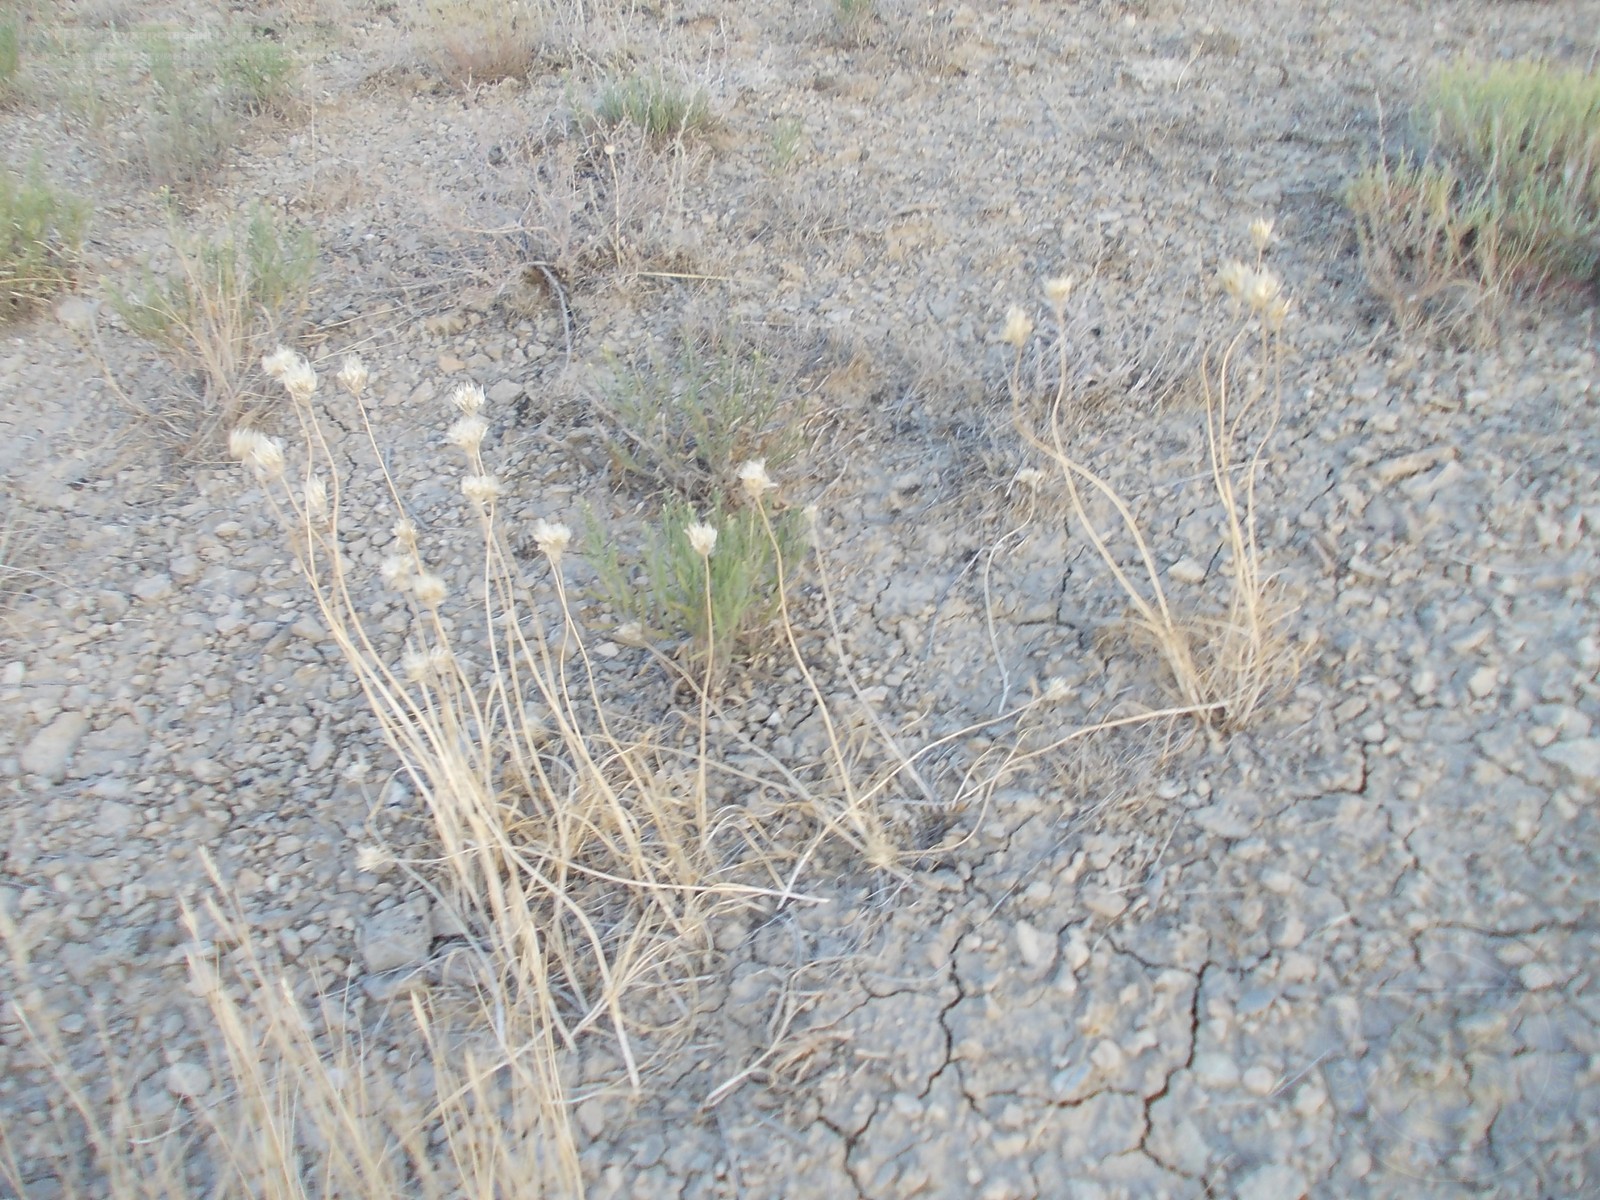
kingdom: Plantae
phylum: Tracheophyta
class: Liliopsida
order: Asparagales
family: Amaryllidaceae
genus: Allium
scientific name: Allium inderiense
